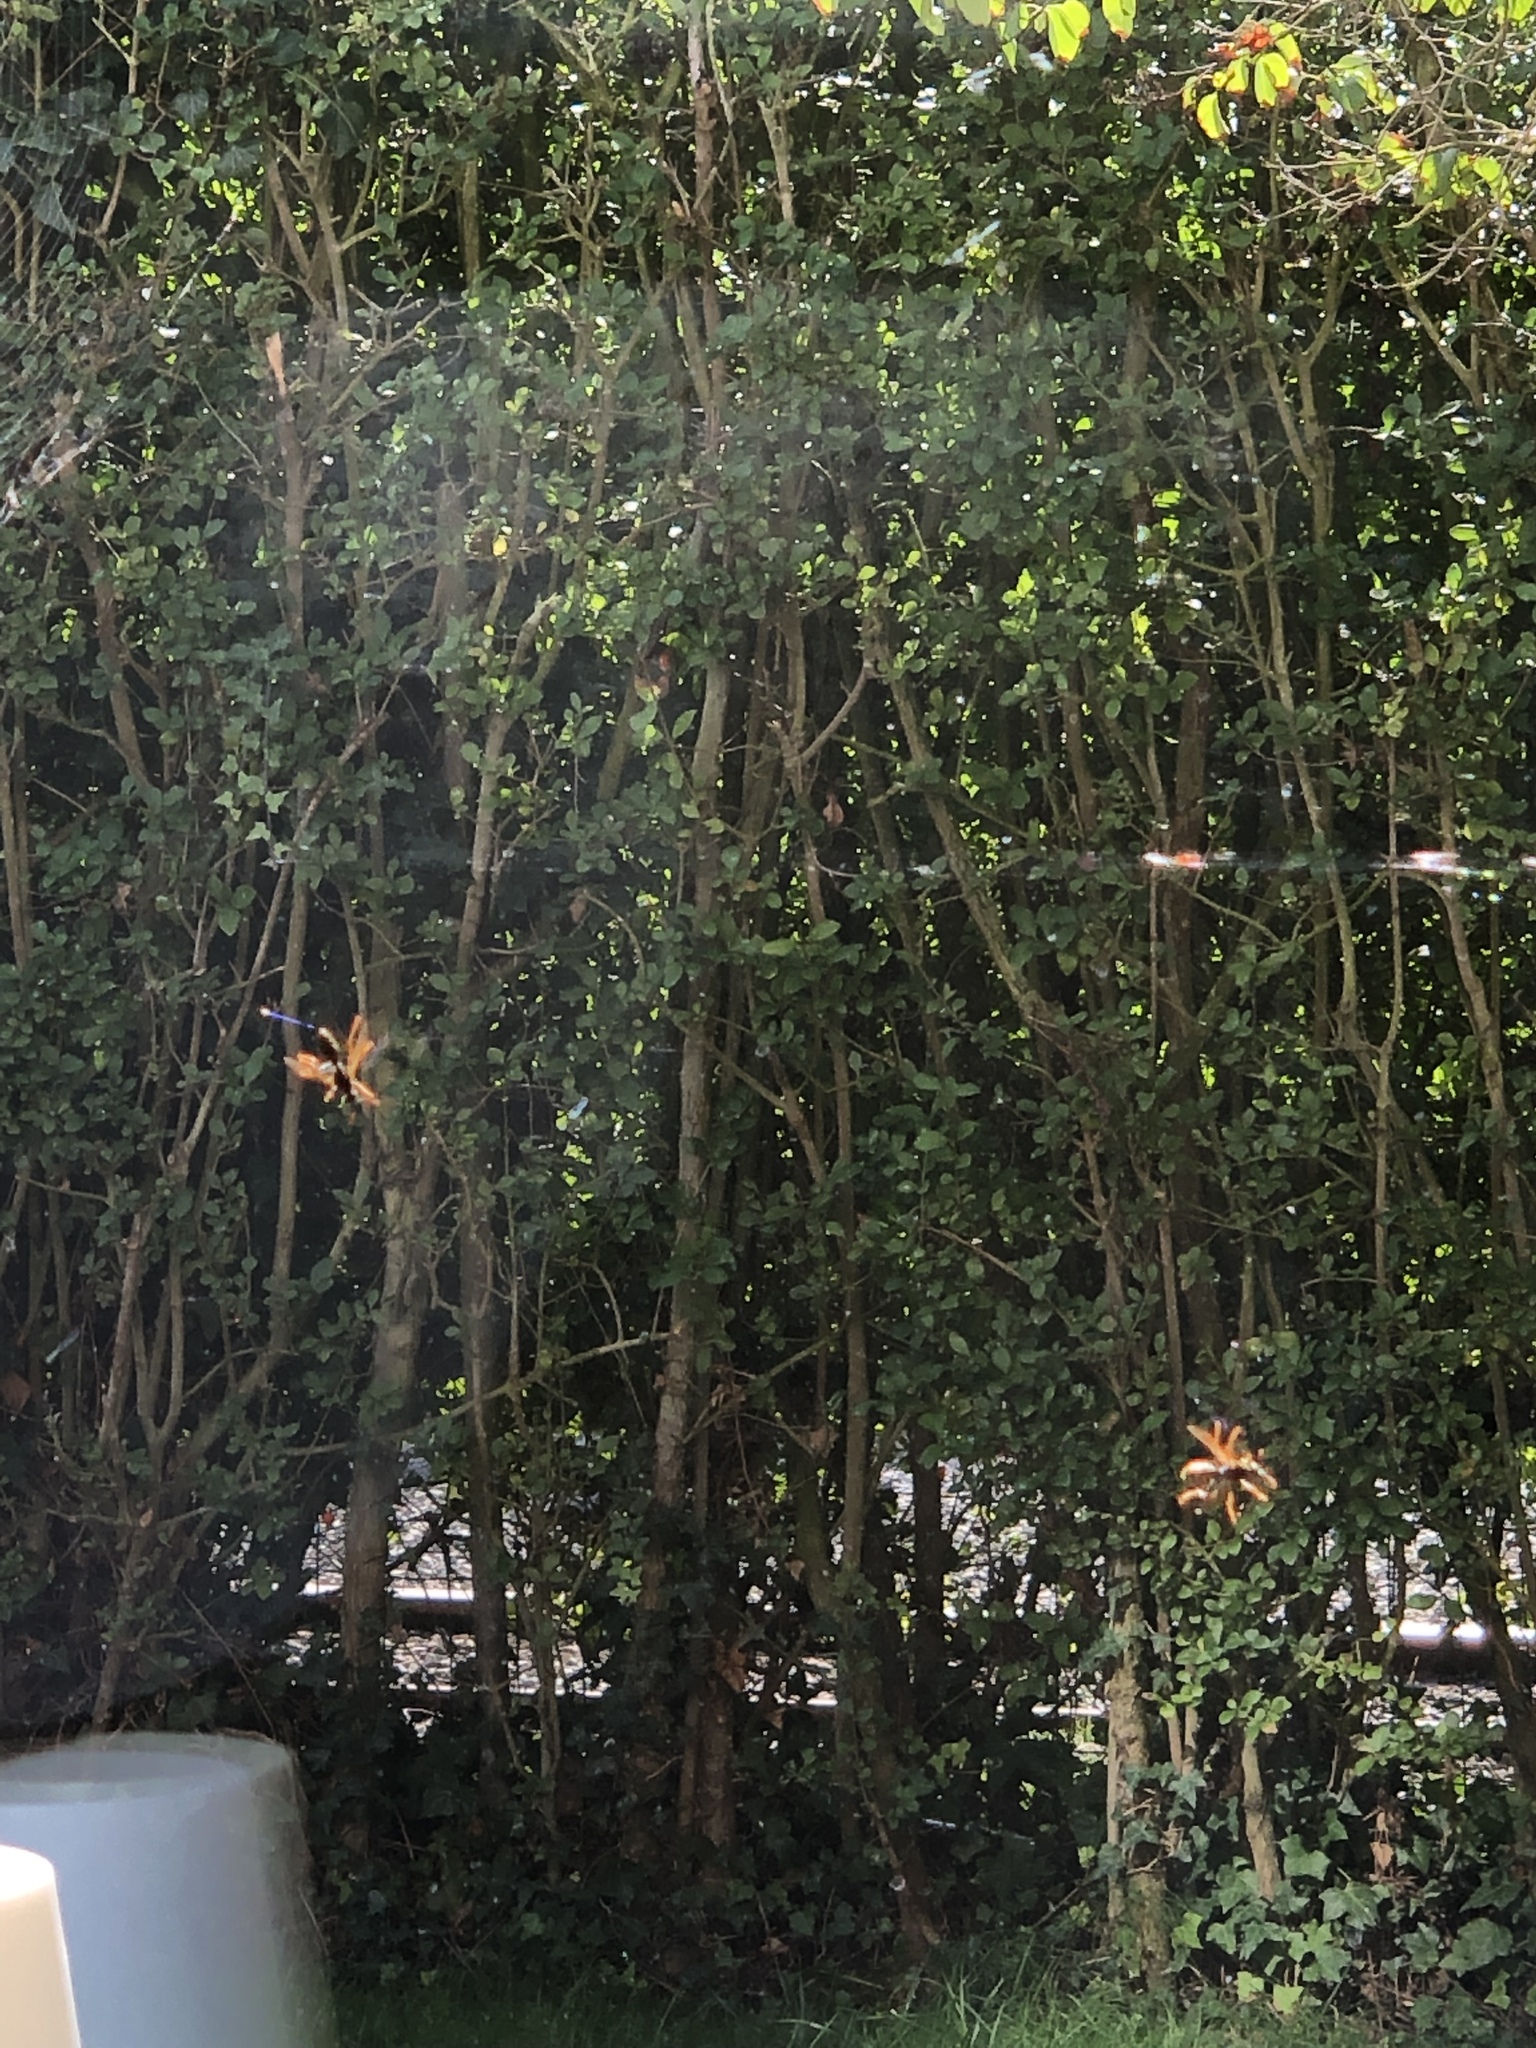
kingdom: Animalia
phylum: Arthropoda
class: Insecta
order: Hymenoptera
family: Eumenidae
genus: Polistes
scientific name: Polistes dominula
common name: Paper wasp
